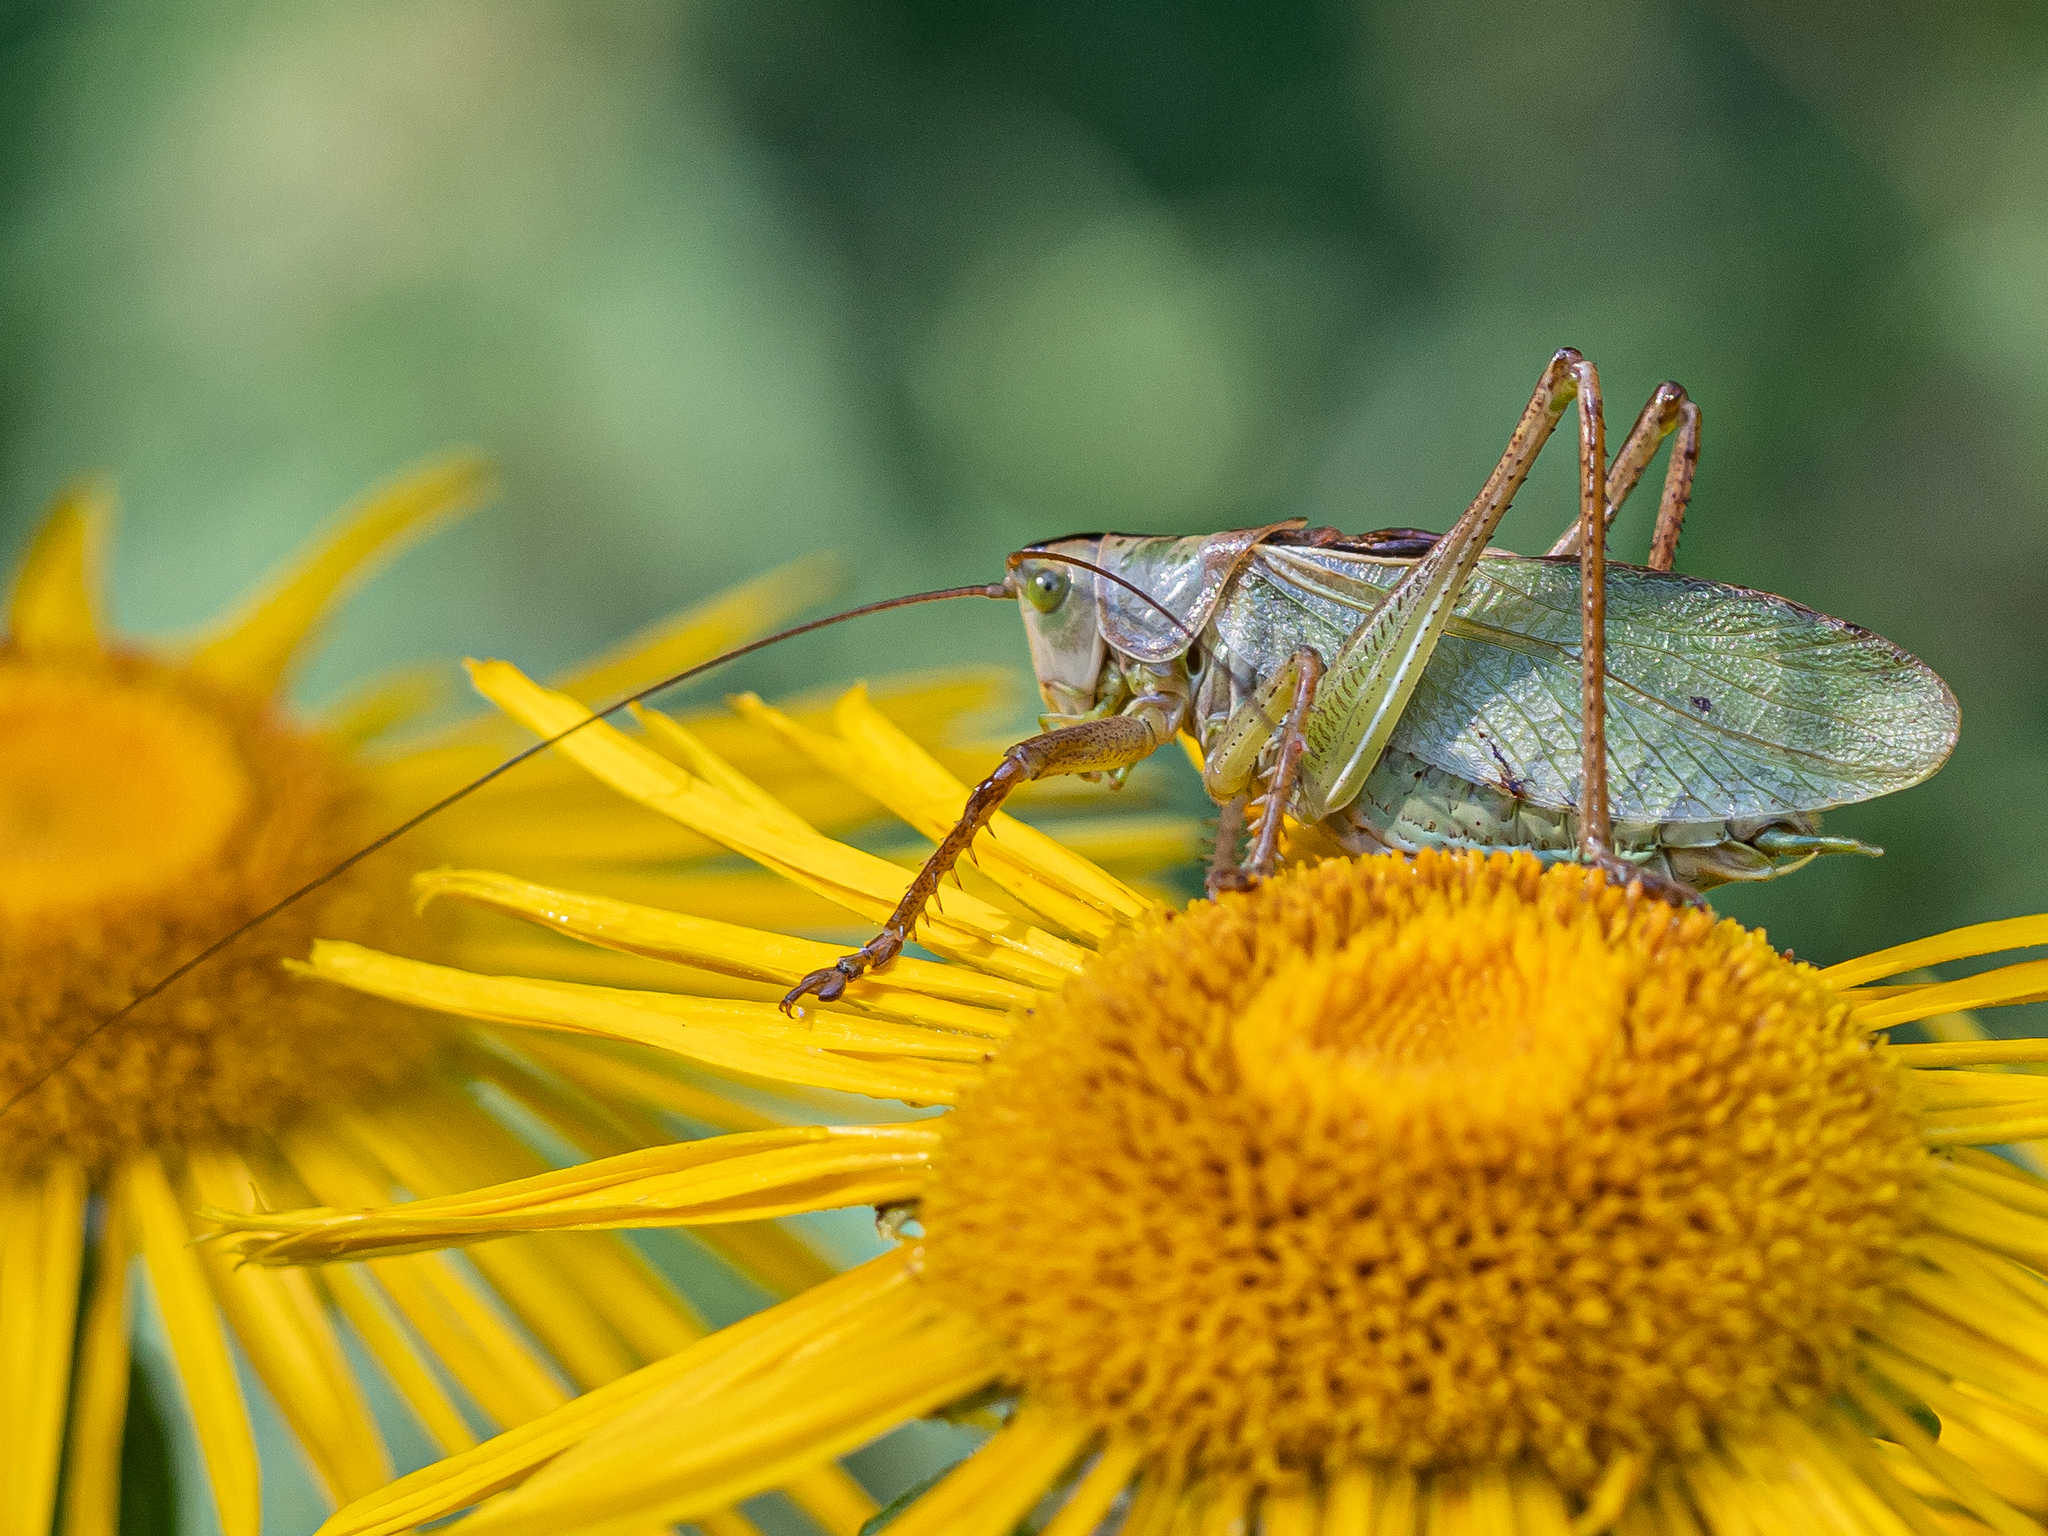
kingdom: Animalia
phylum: Arthropoda
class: Insecta
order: Orthoptera
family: Tettigoniidae
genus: Tettigonia
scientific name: Tettigonia cantans
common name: Upland green bush-cricket
